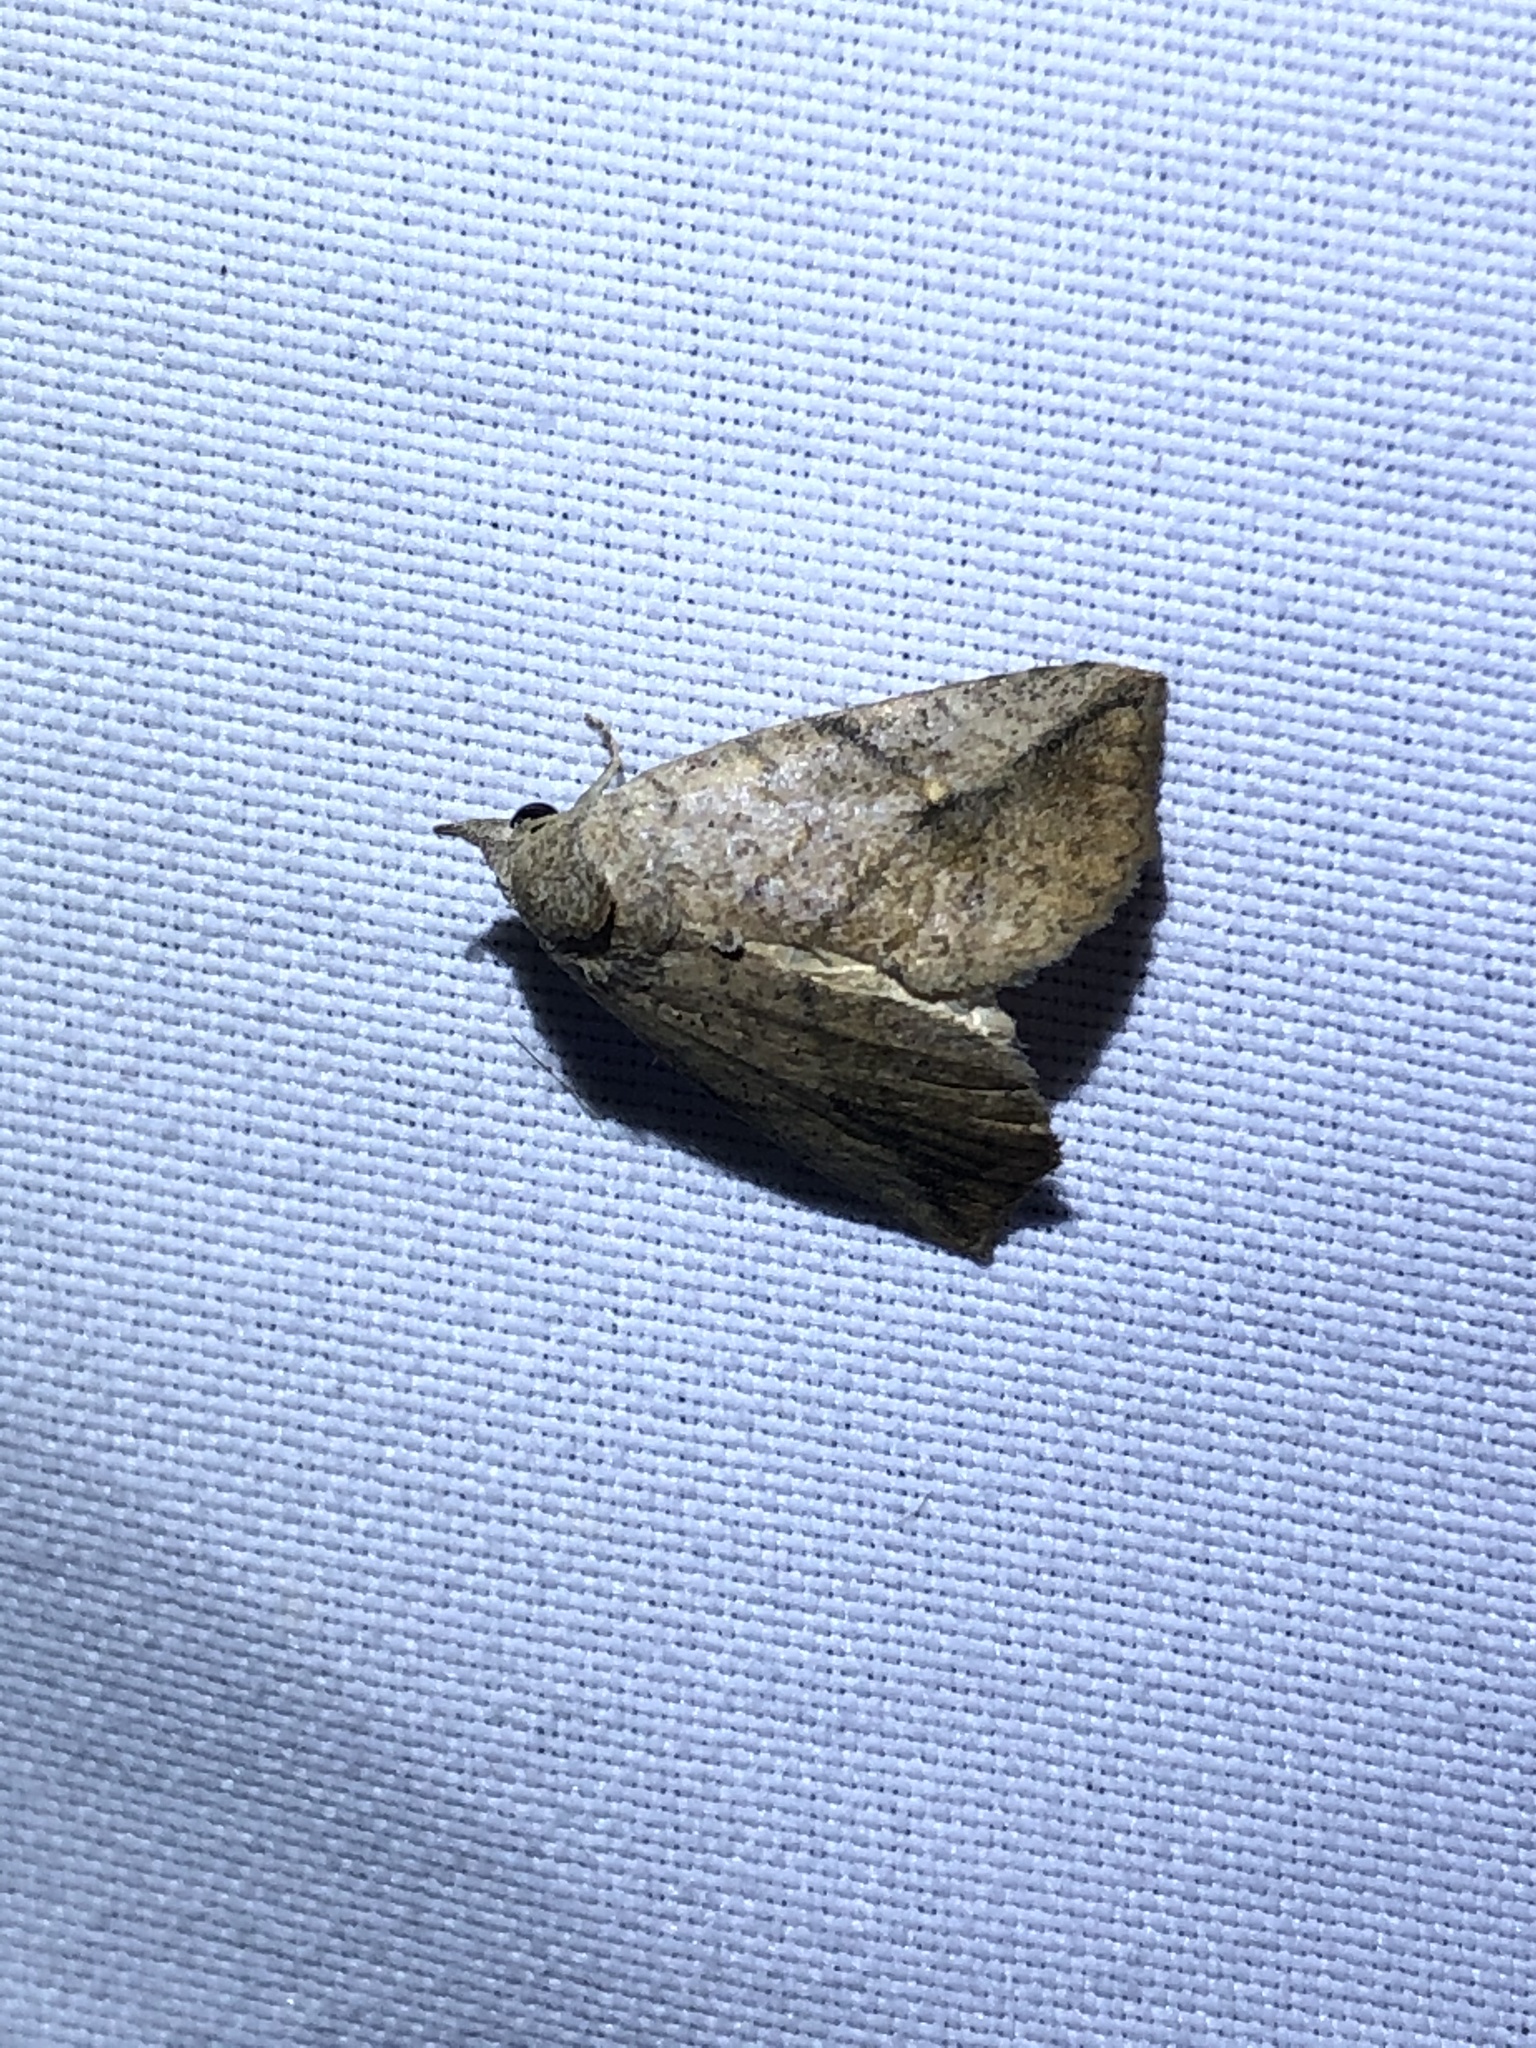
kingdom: Animalia
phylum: Arthropoda
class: Insecta
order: Lepidoptera
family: Erebidae
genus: Isogona
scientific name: Isogona snowi
